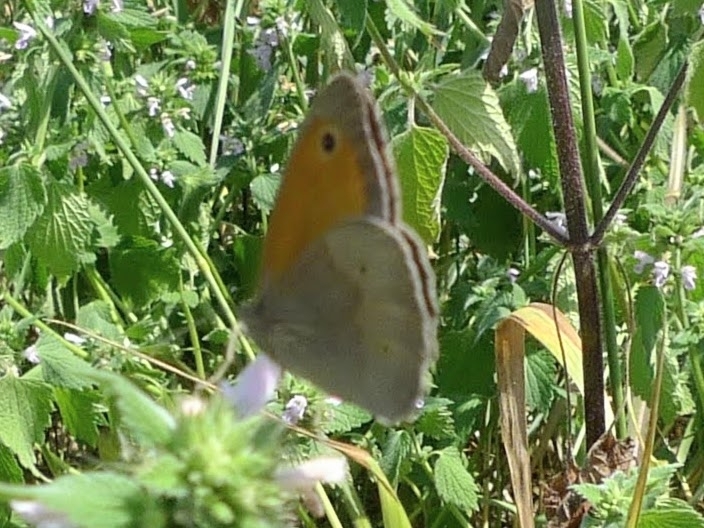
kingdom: Animalia
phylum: Arthropoda
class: Insecta
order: Lepidoptera
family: Nymphalidae
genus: Maniola
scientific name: Maniola jurtina
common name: Meadow brown
